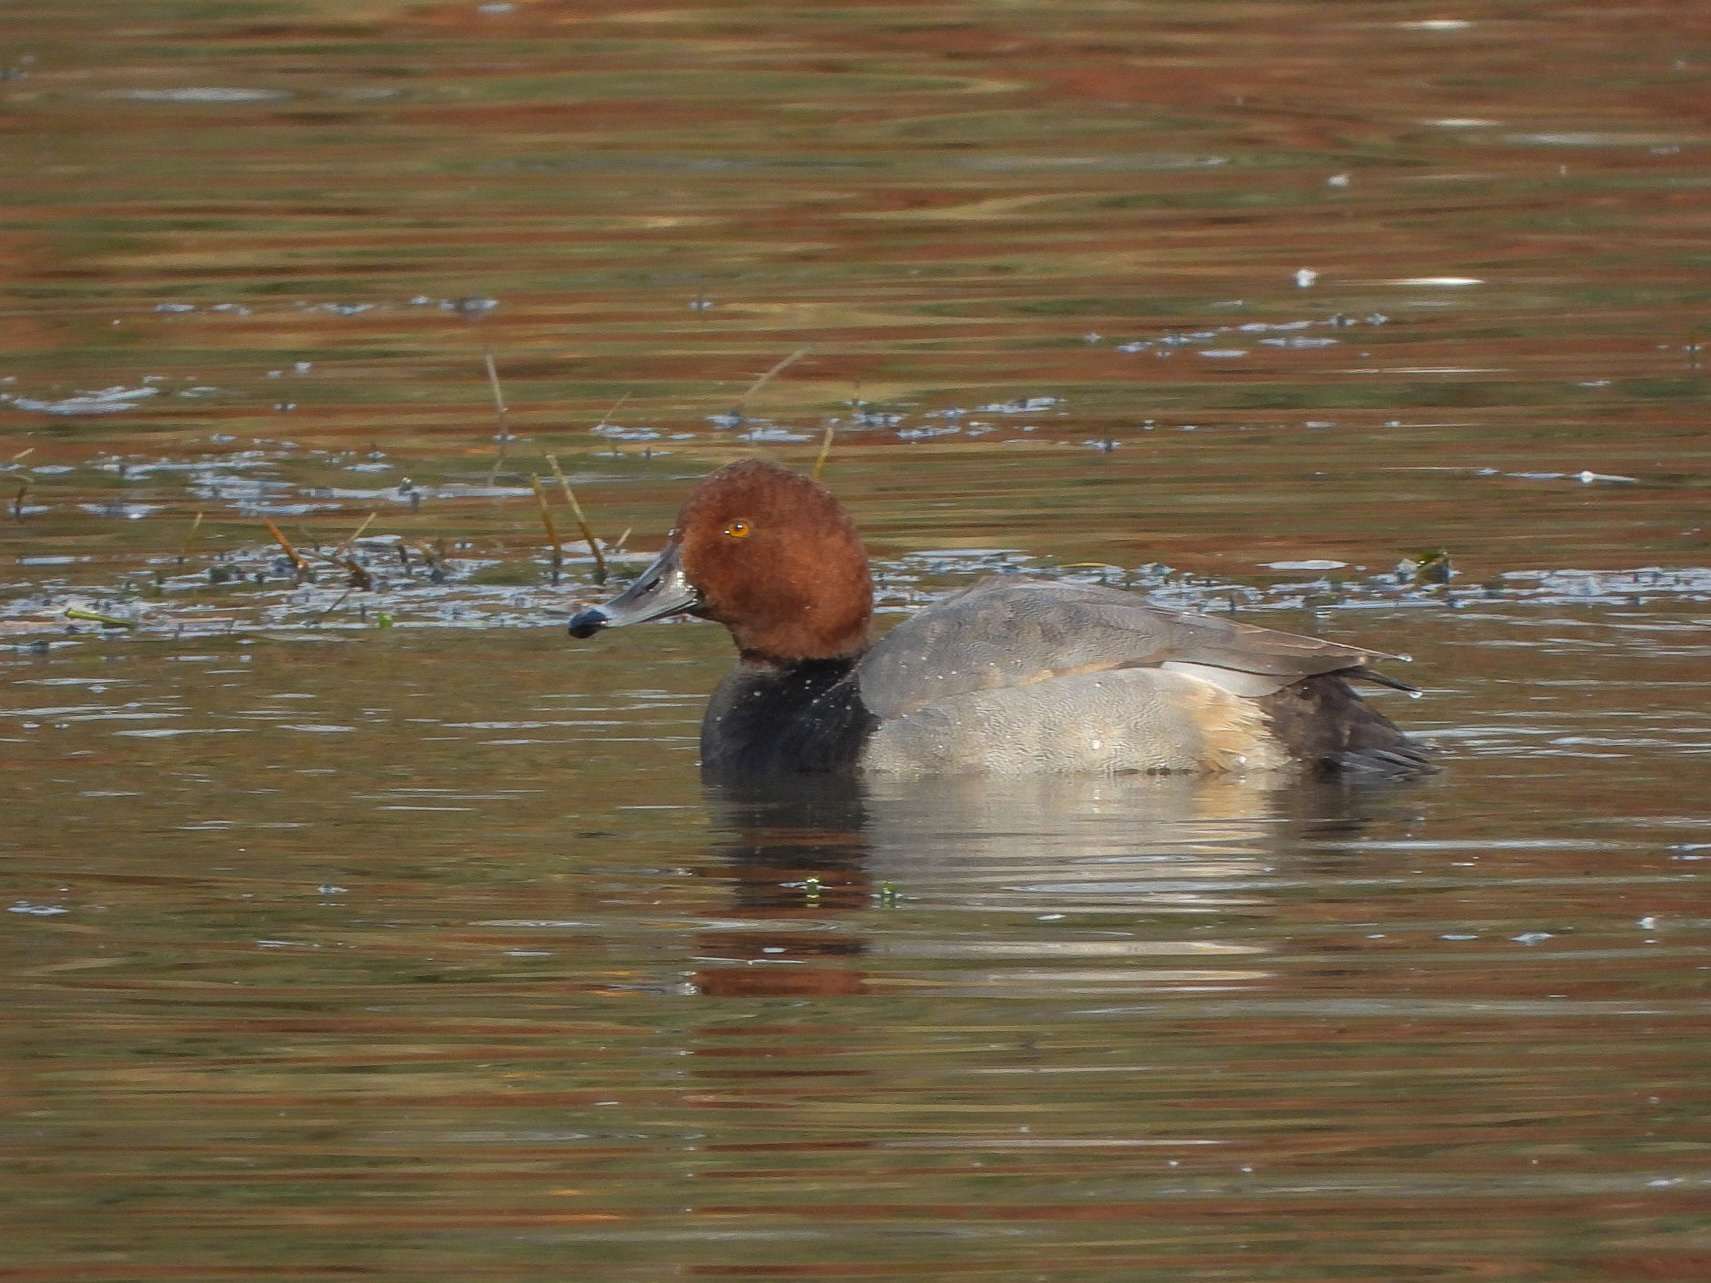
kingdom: Animalia
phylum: Chordata
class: Aves
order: Anseriformes
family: Anatidae
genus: Aythya
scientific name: Aythya americana
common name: Redhead
